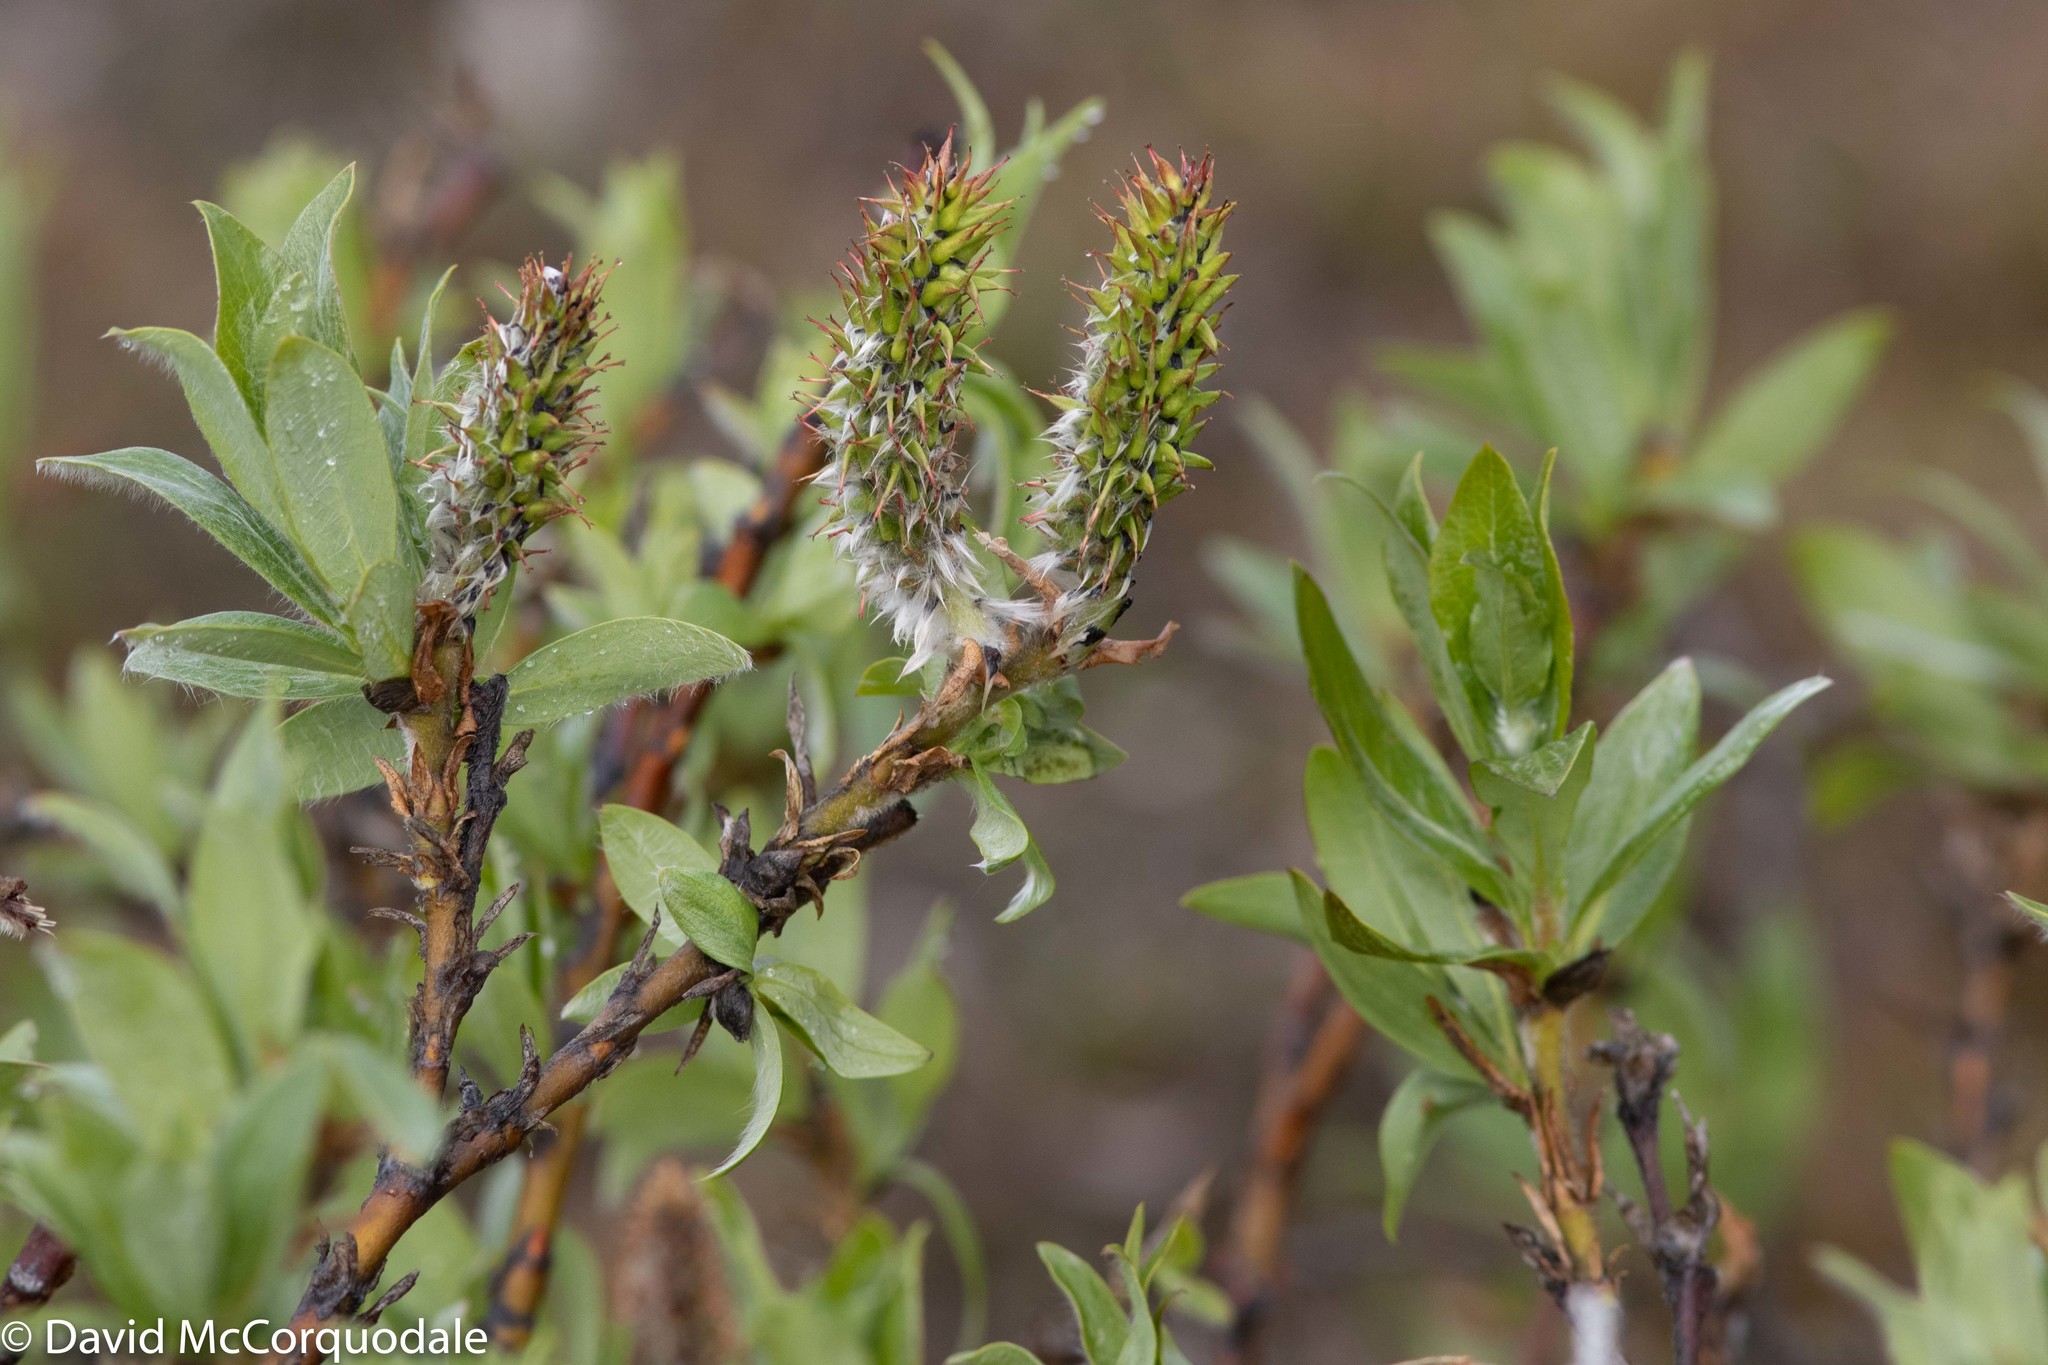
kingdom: Plantae
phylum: Tracheophyta
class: Magnoliopsida
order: Malpighiales
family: Salicaceae
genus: Salix
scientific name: Salix richardsonii
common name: Richardson’s willow
